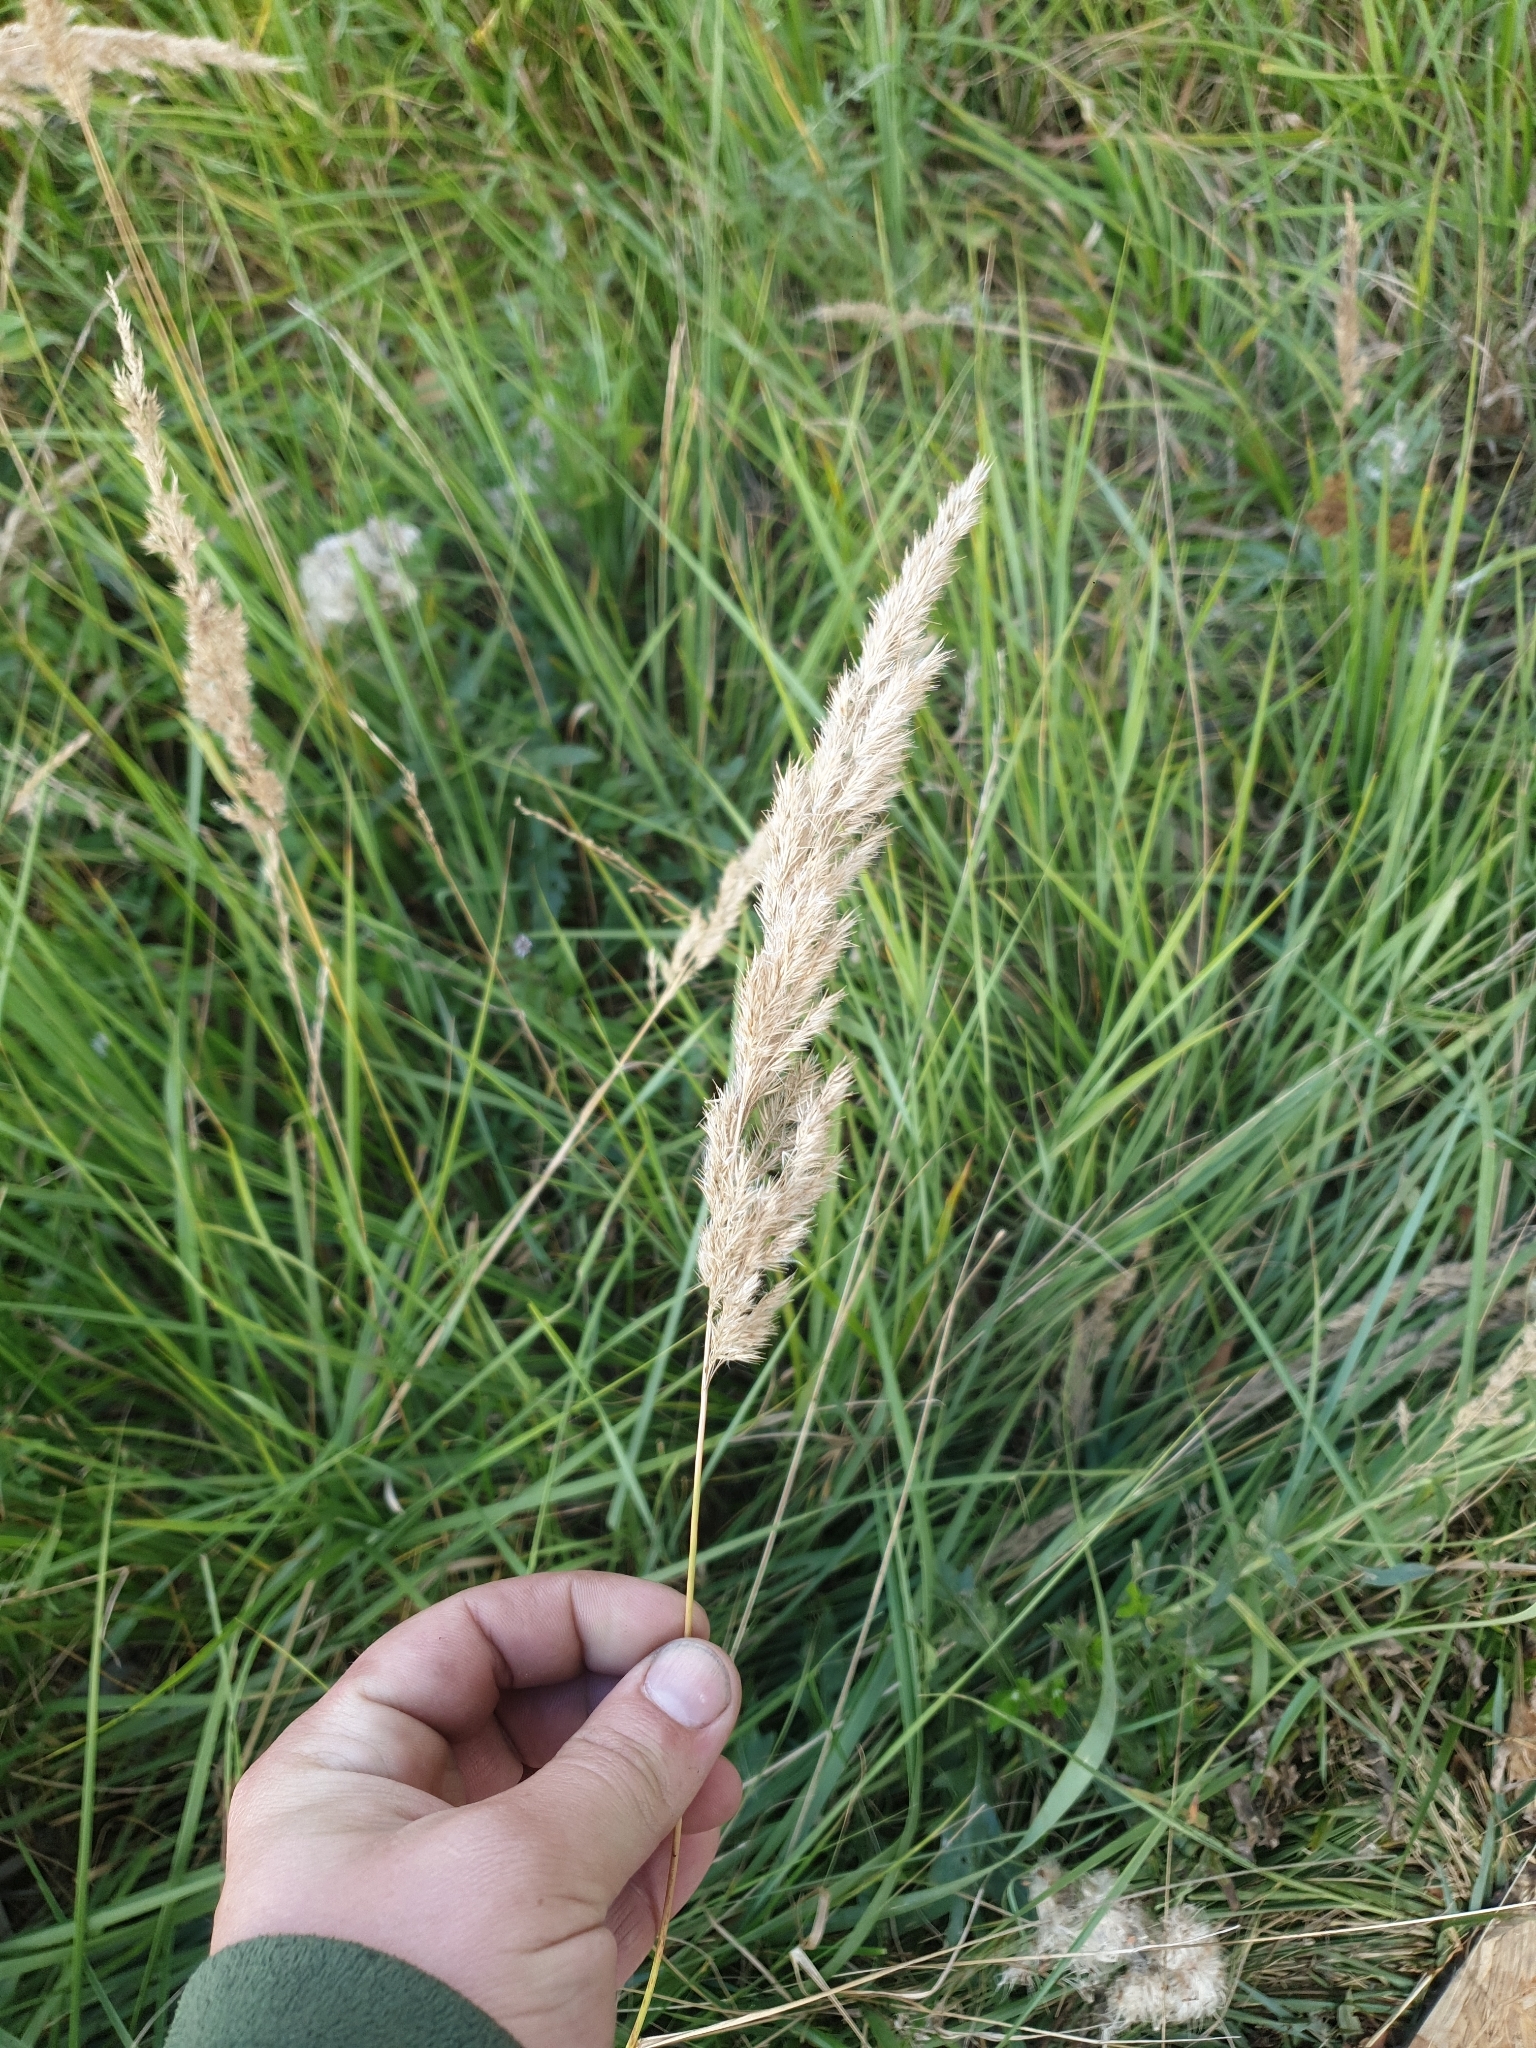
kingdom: Plantae
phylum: Tracheophyta
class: Liliopsida
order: Poales
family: Poaceae
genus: Calamagrostis
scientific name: Calamagrostis epigejos
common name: Wood small-reed
